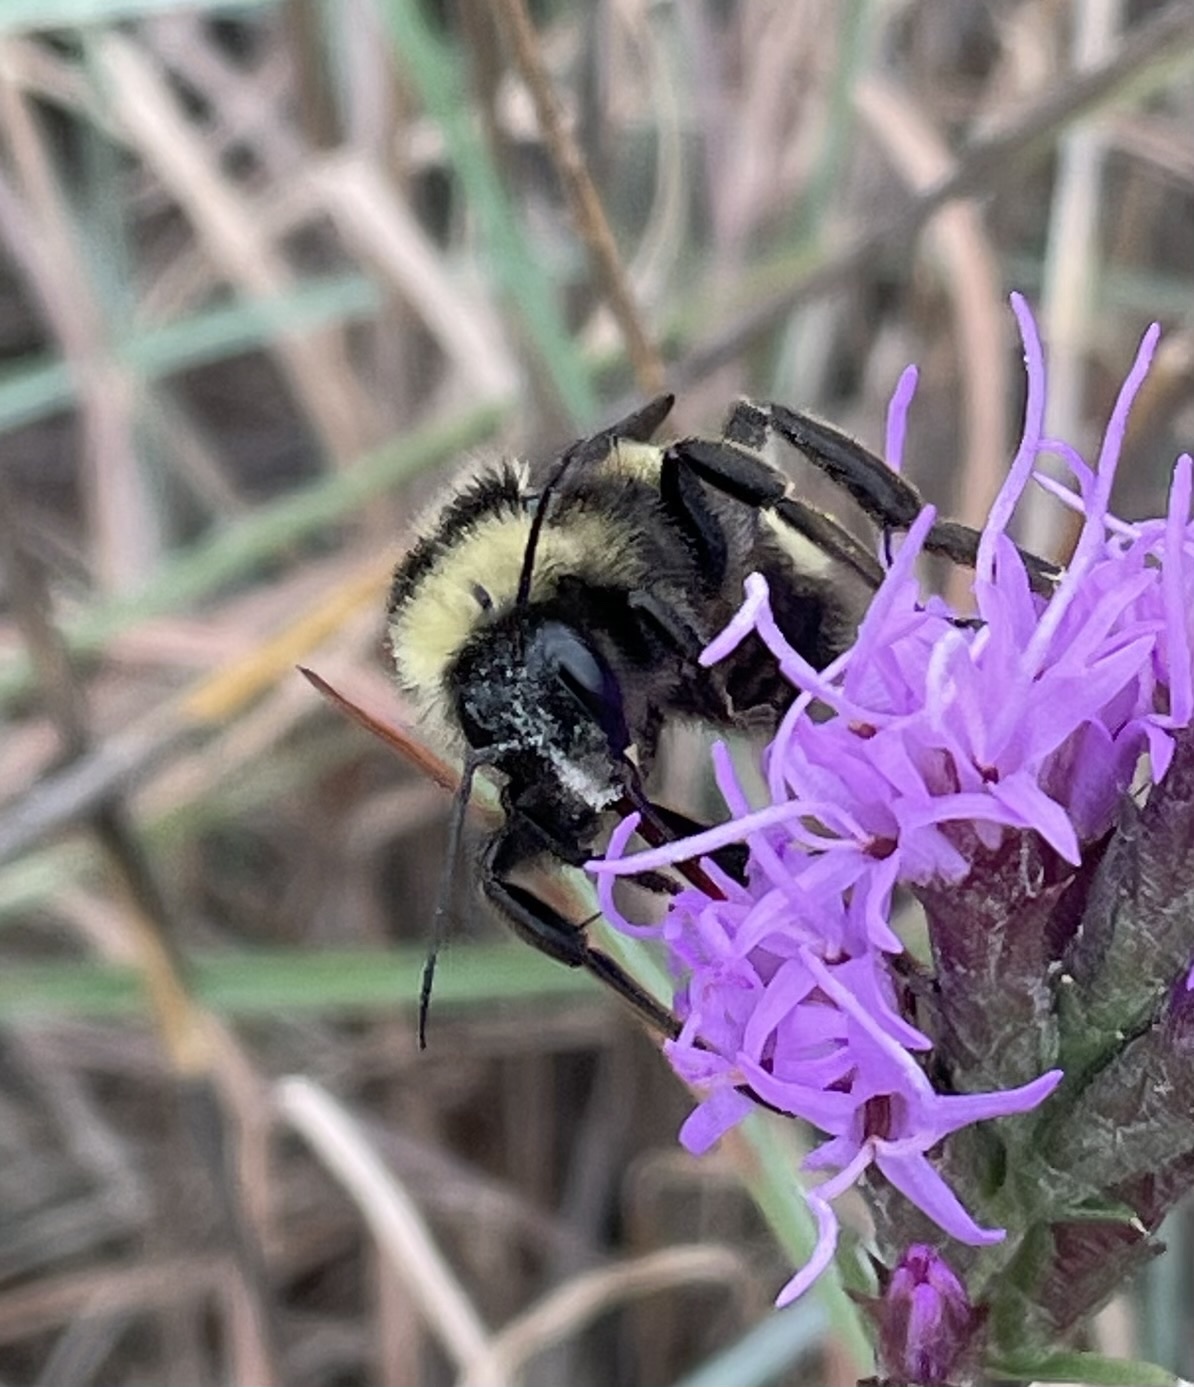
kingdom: Animalia
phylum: Arthropoda
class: Insecta
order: Hymenoptera
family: Apidae
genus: Bombus
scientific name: Bombus pensylvanicus
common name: Bumble bee
